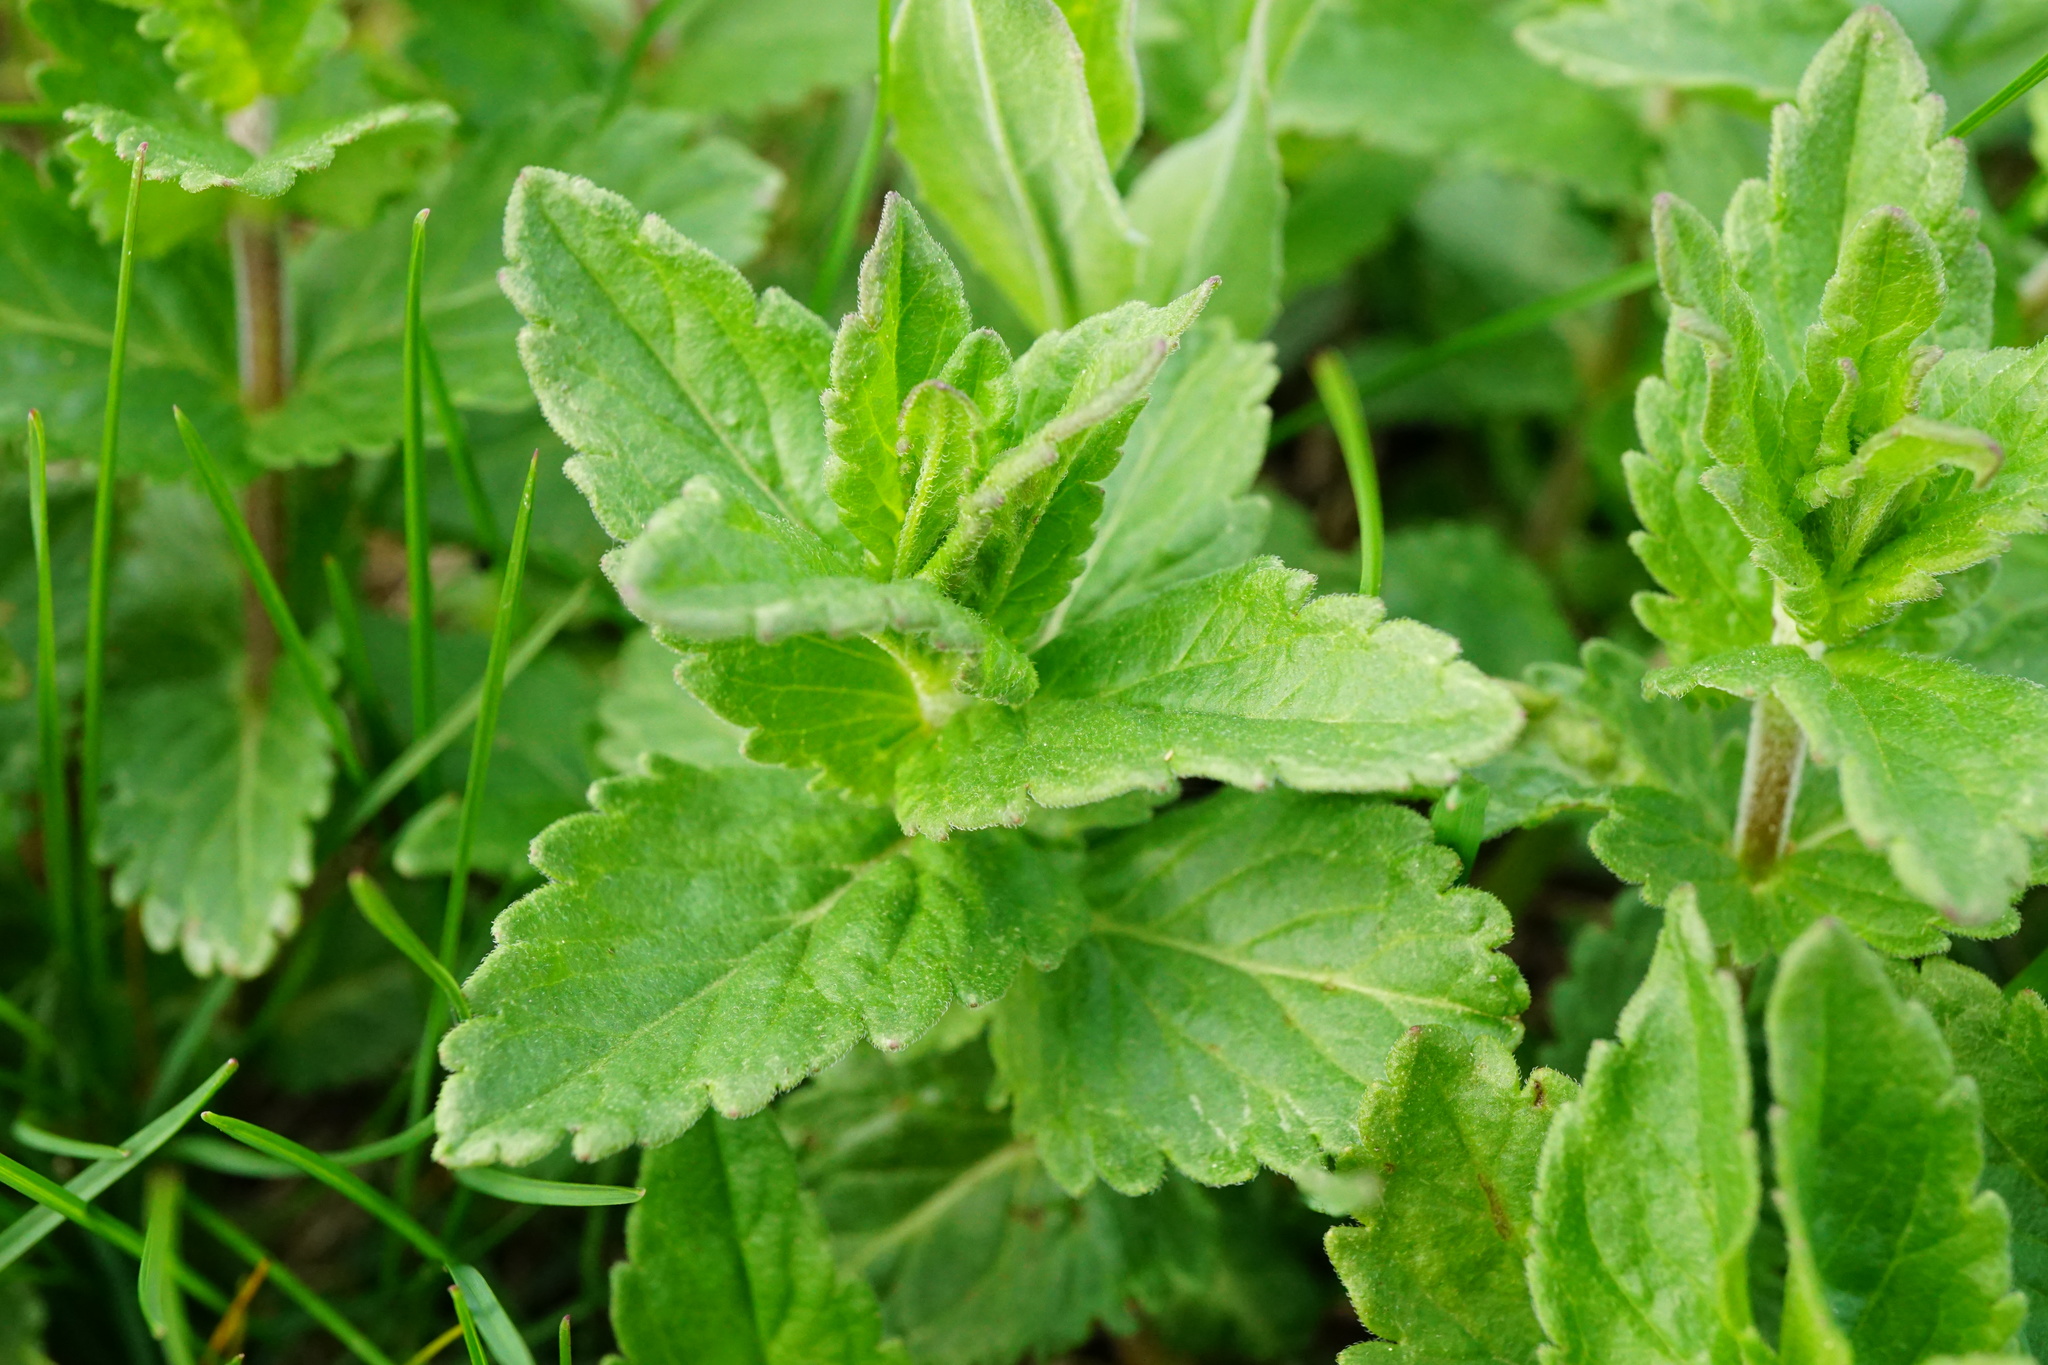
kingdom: Plantae
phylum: Tracheophyta
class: Magnoliopsida
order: Lamiales
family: Plantaginaceae
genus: Veronica
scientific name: Veronica teucrium
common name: Large speedwell
